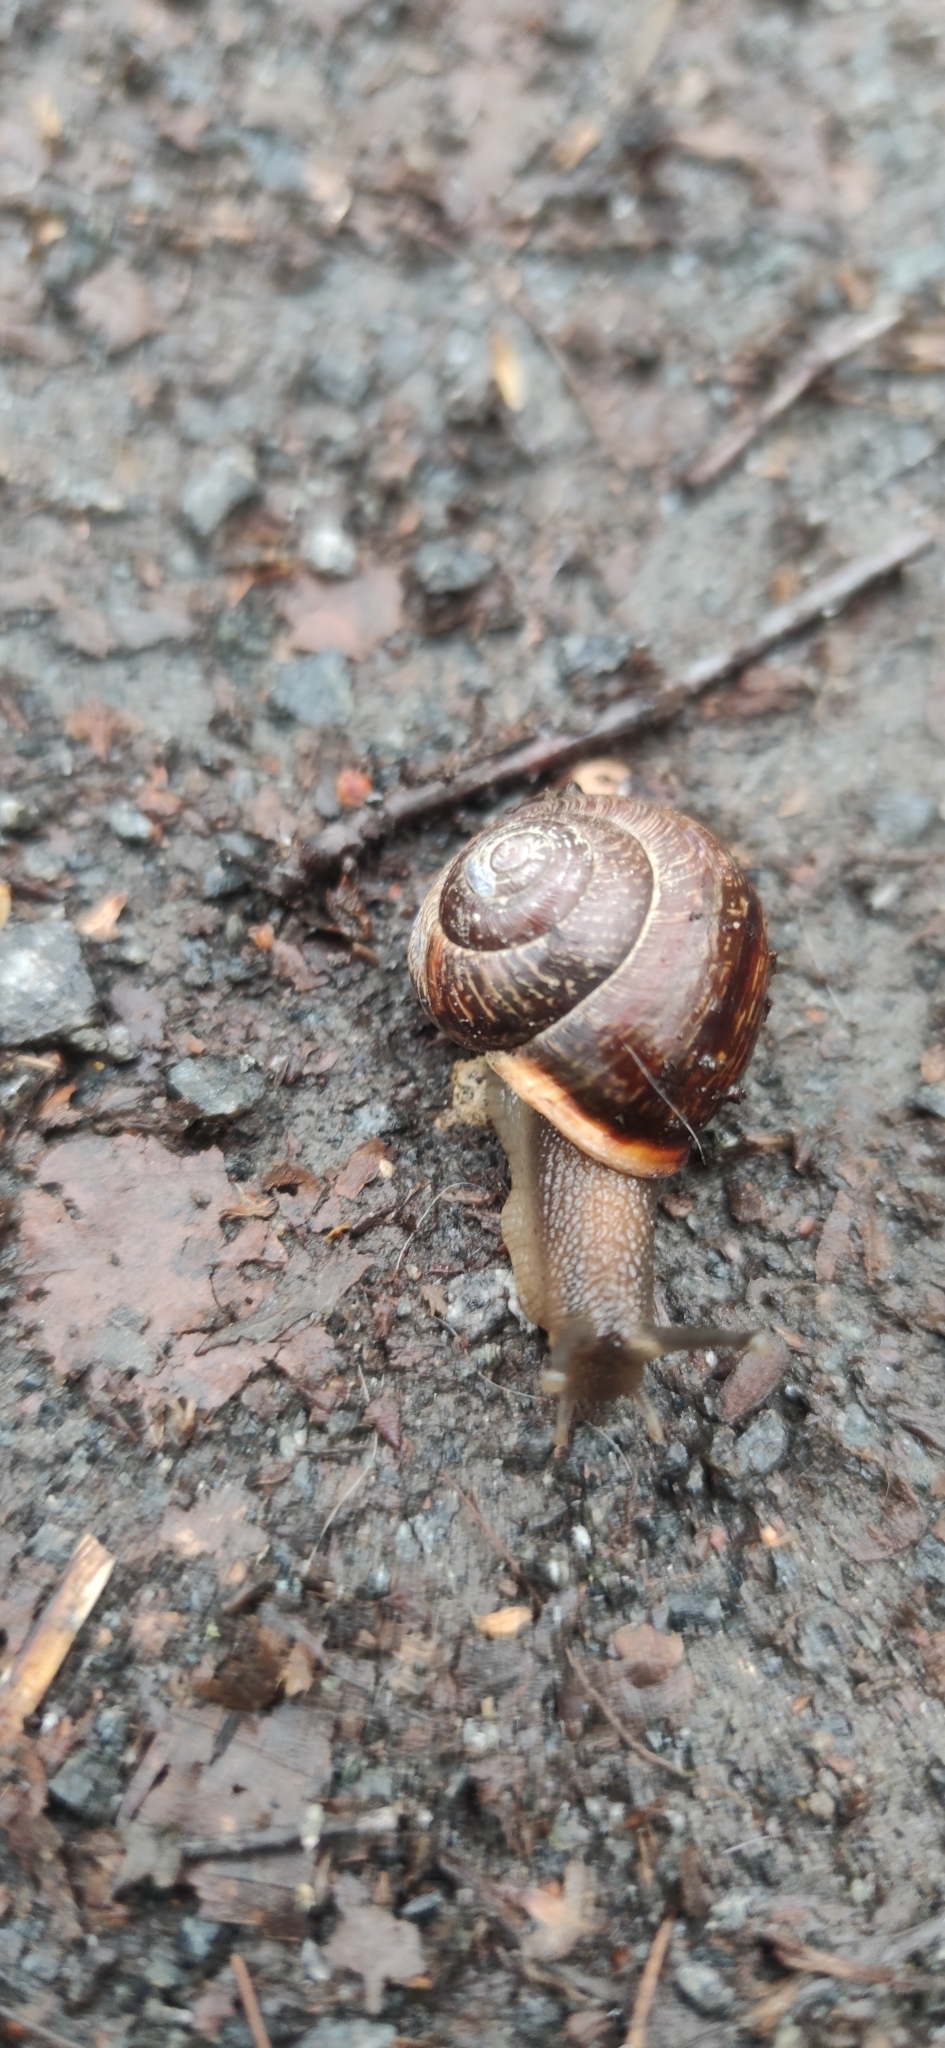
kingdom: Animalia
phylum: Mollusca
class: Gastropoda
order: Stylommatophora
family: Helicidae
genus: Arianta
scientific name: Arianta arbustorum
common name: Copse snail
